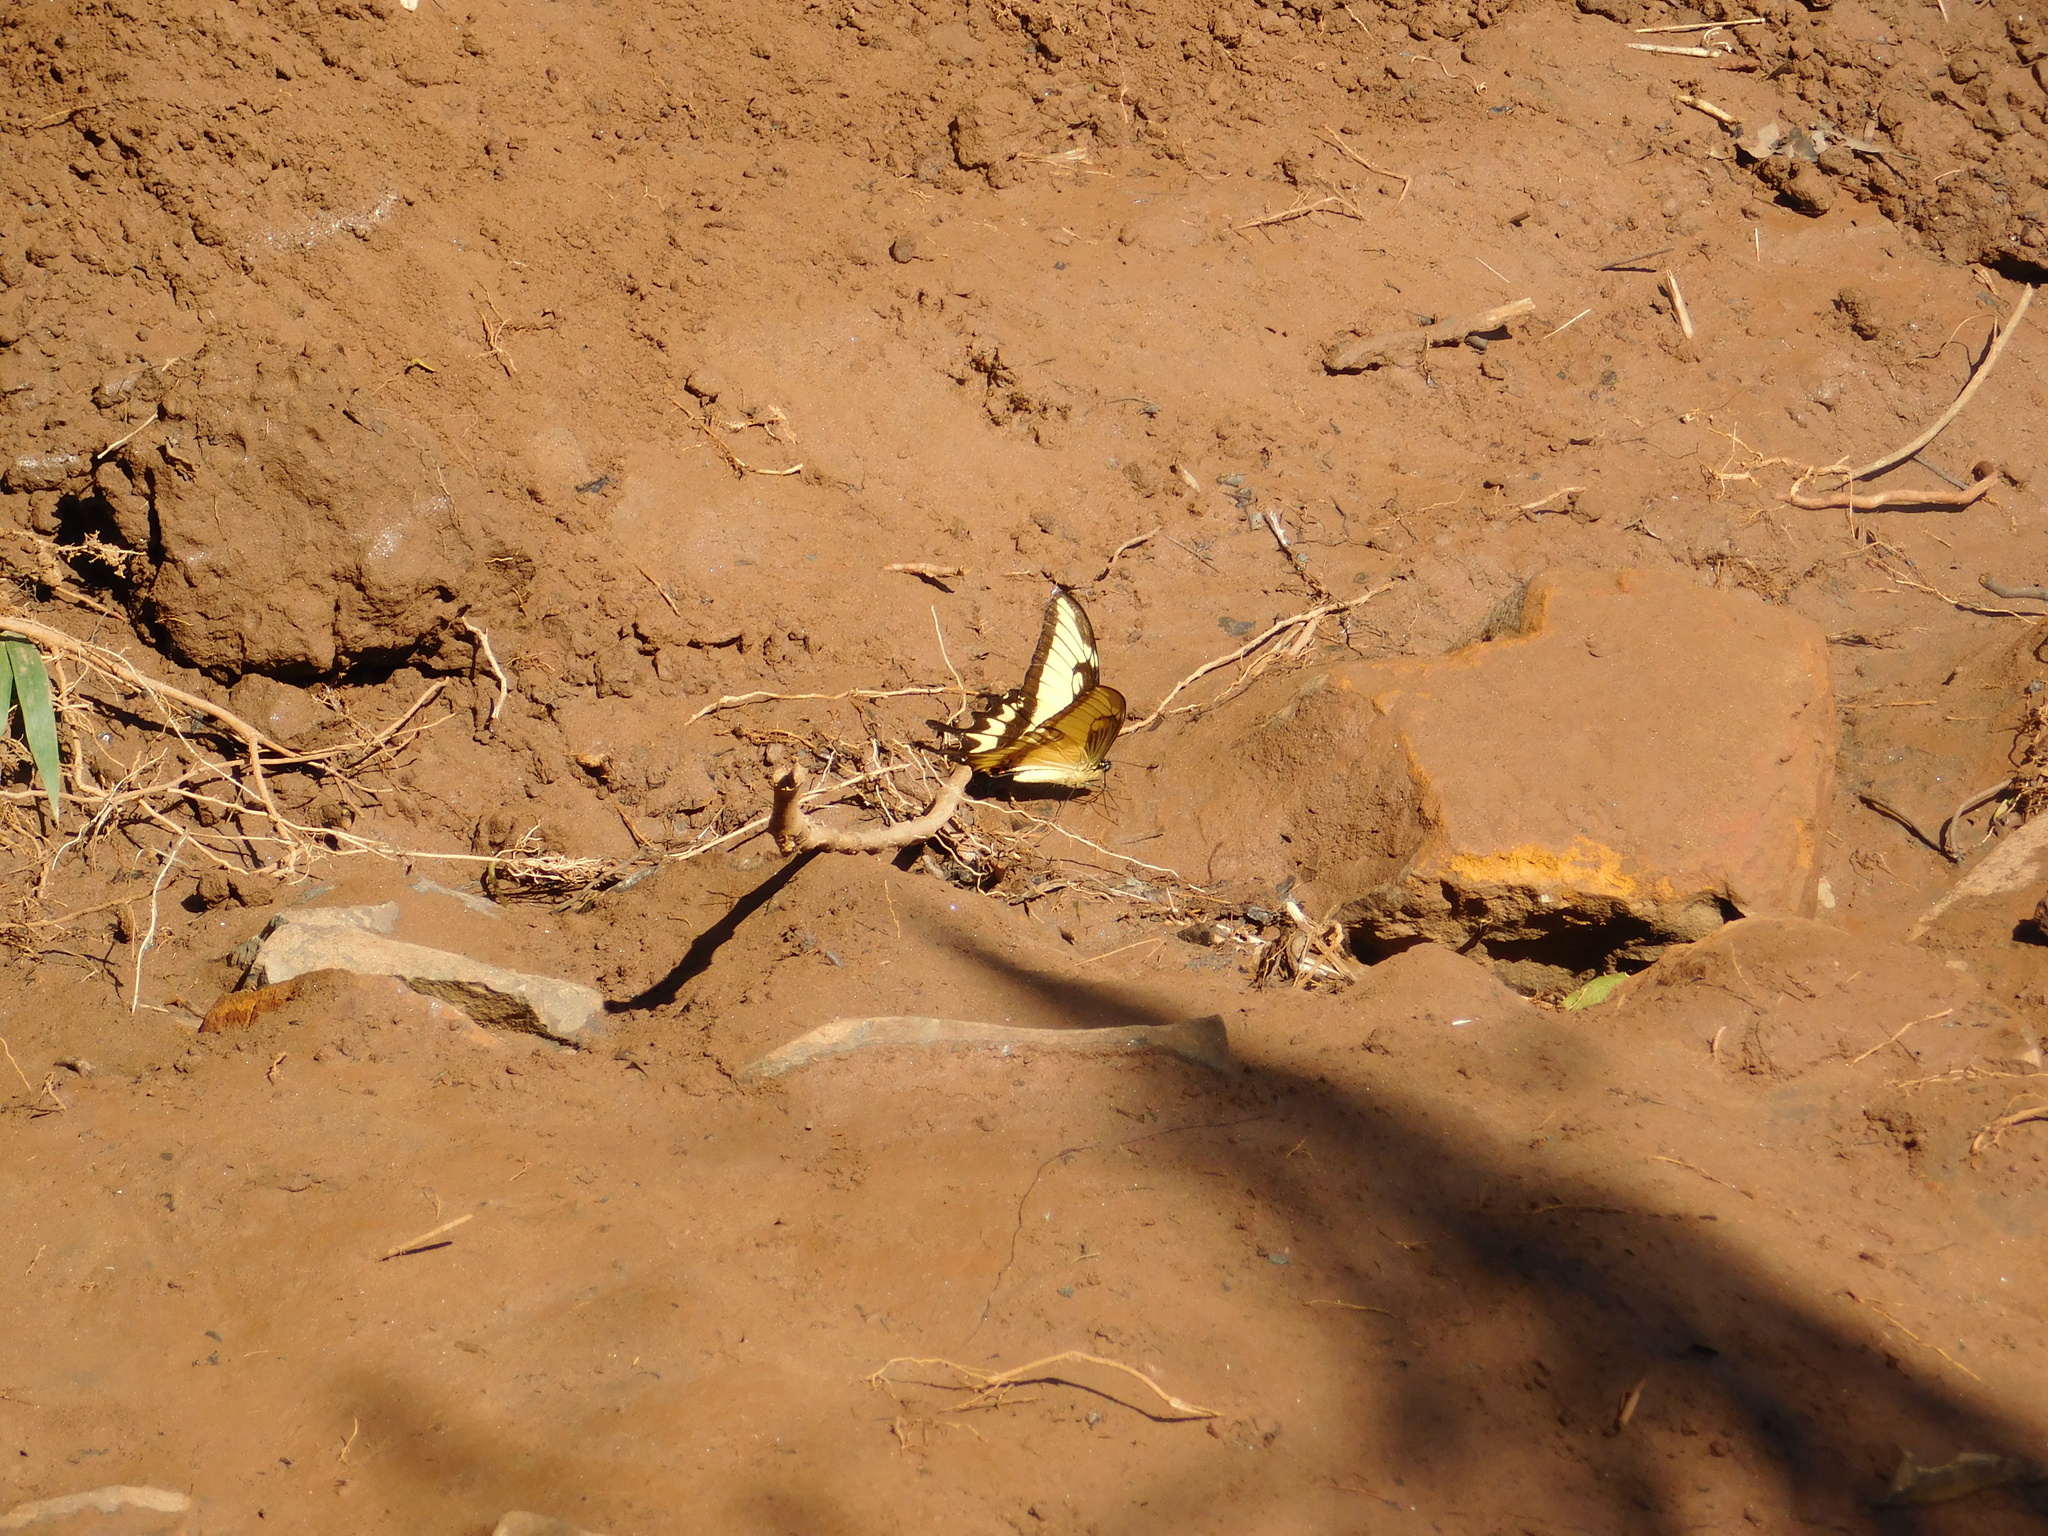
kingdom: Animalia
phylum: Arthropoda
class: Insecta
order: Lepidoptera
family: Papilionidae
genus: Papilio
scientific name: Papilio astyalus
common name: Astyalus swallowtail
